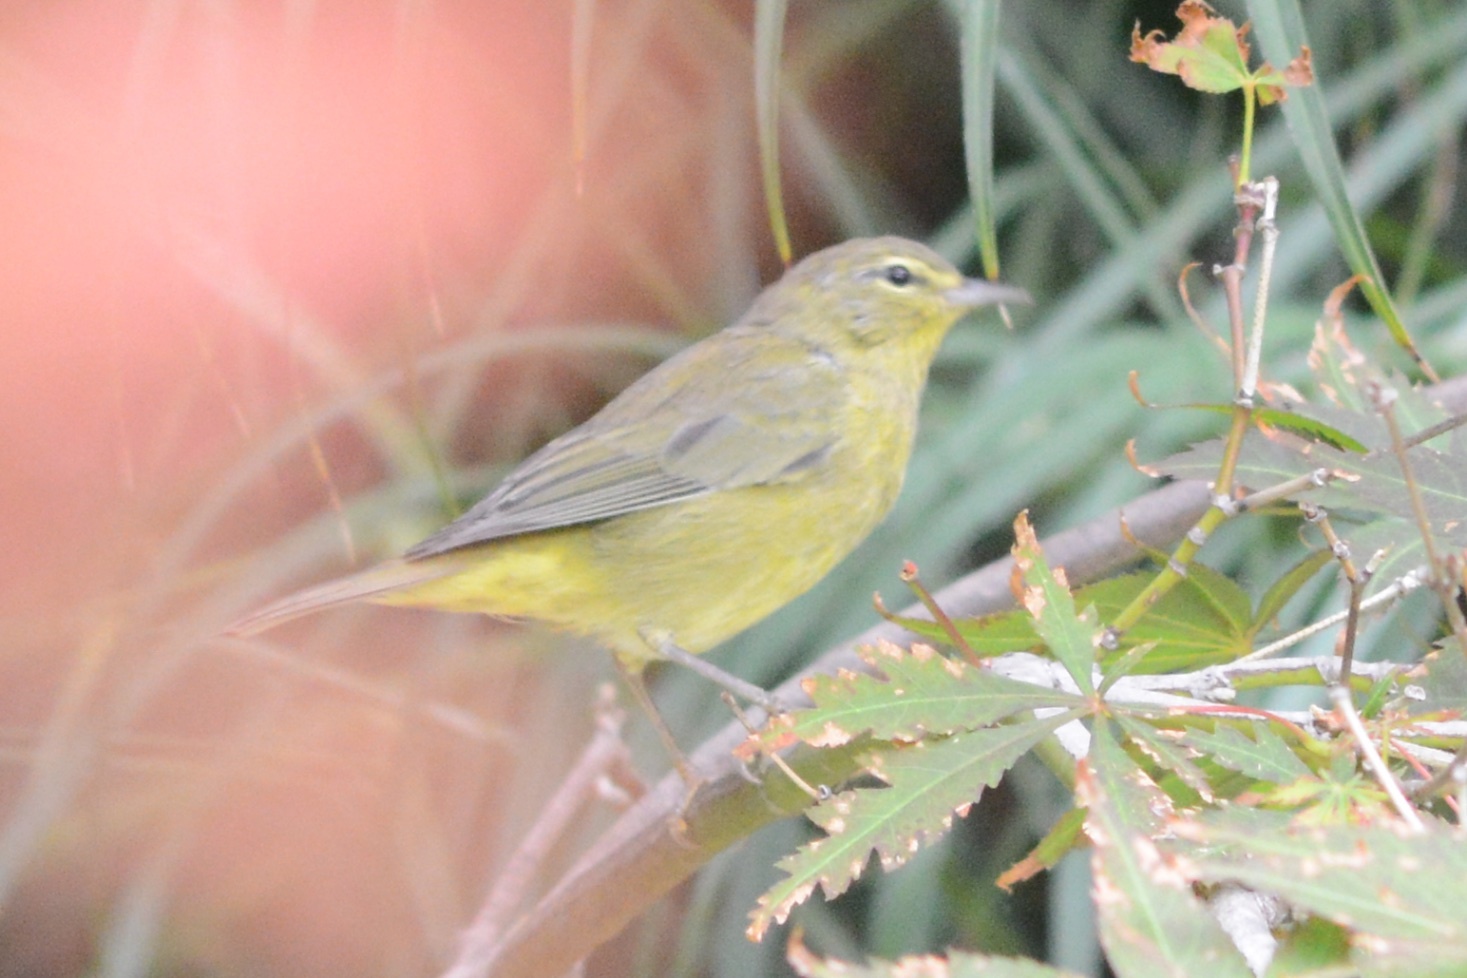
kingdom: Animalia
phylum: Chordata
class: Aves
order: Passeriformes
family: Parulidae
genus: Leiothlypis
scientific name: Leiothlypis celata
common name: Orange-crowned warbler
